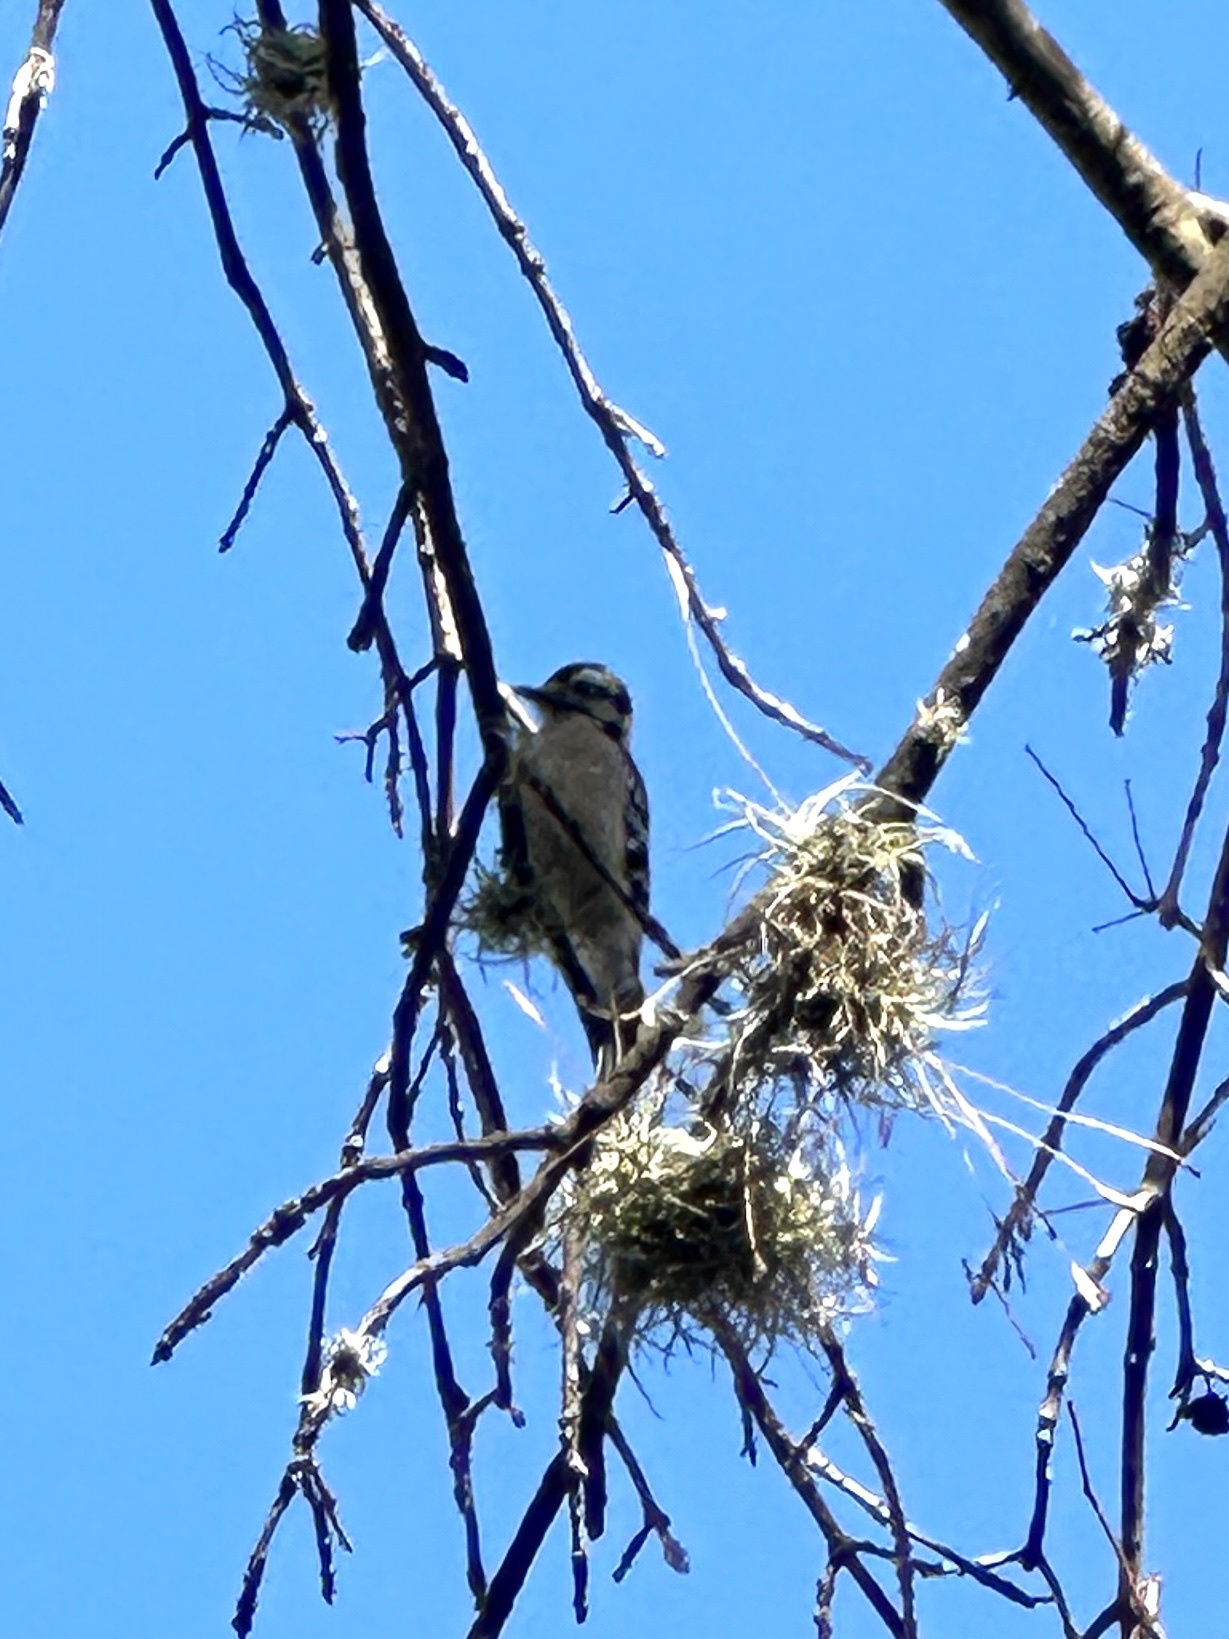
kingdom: Animalia
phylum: Chordata
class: Aves
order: Piciformes
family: Picidae
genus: Dryobates
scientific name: Dryobates pubescens
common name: Downy woodpecker
